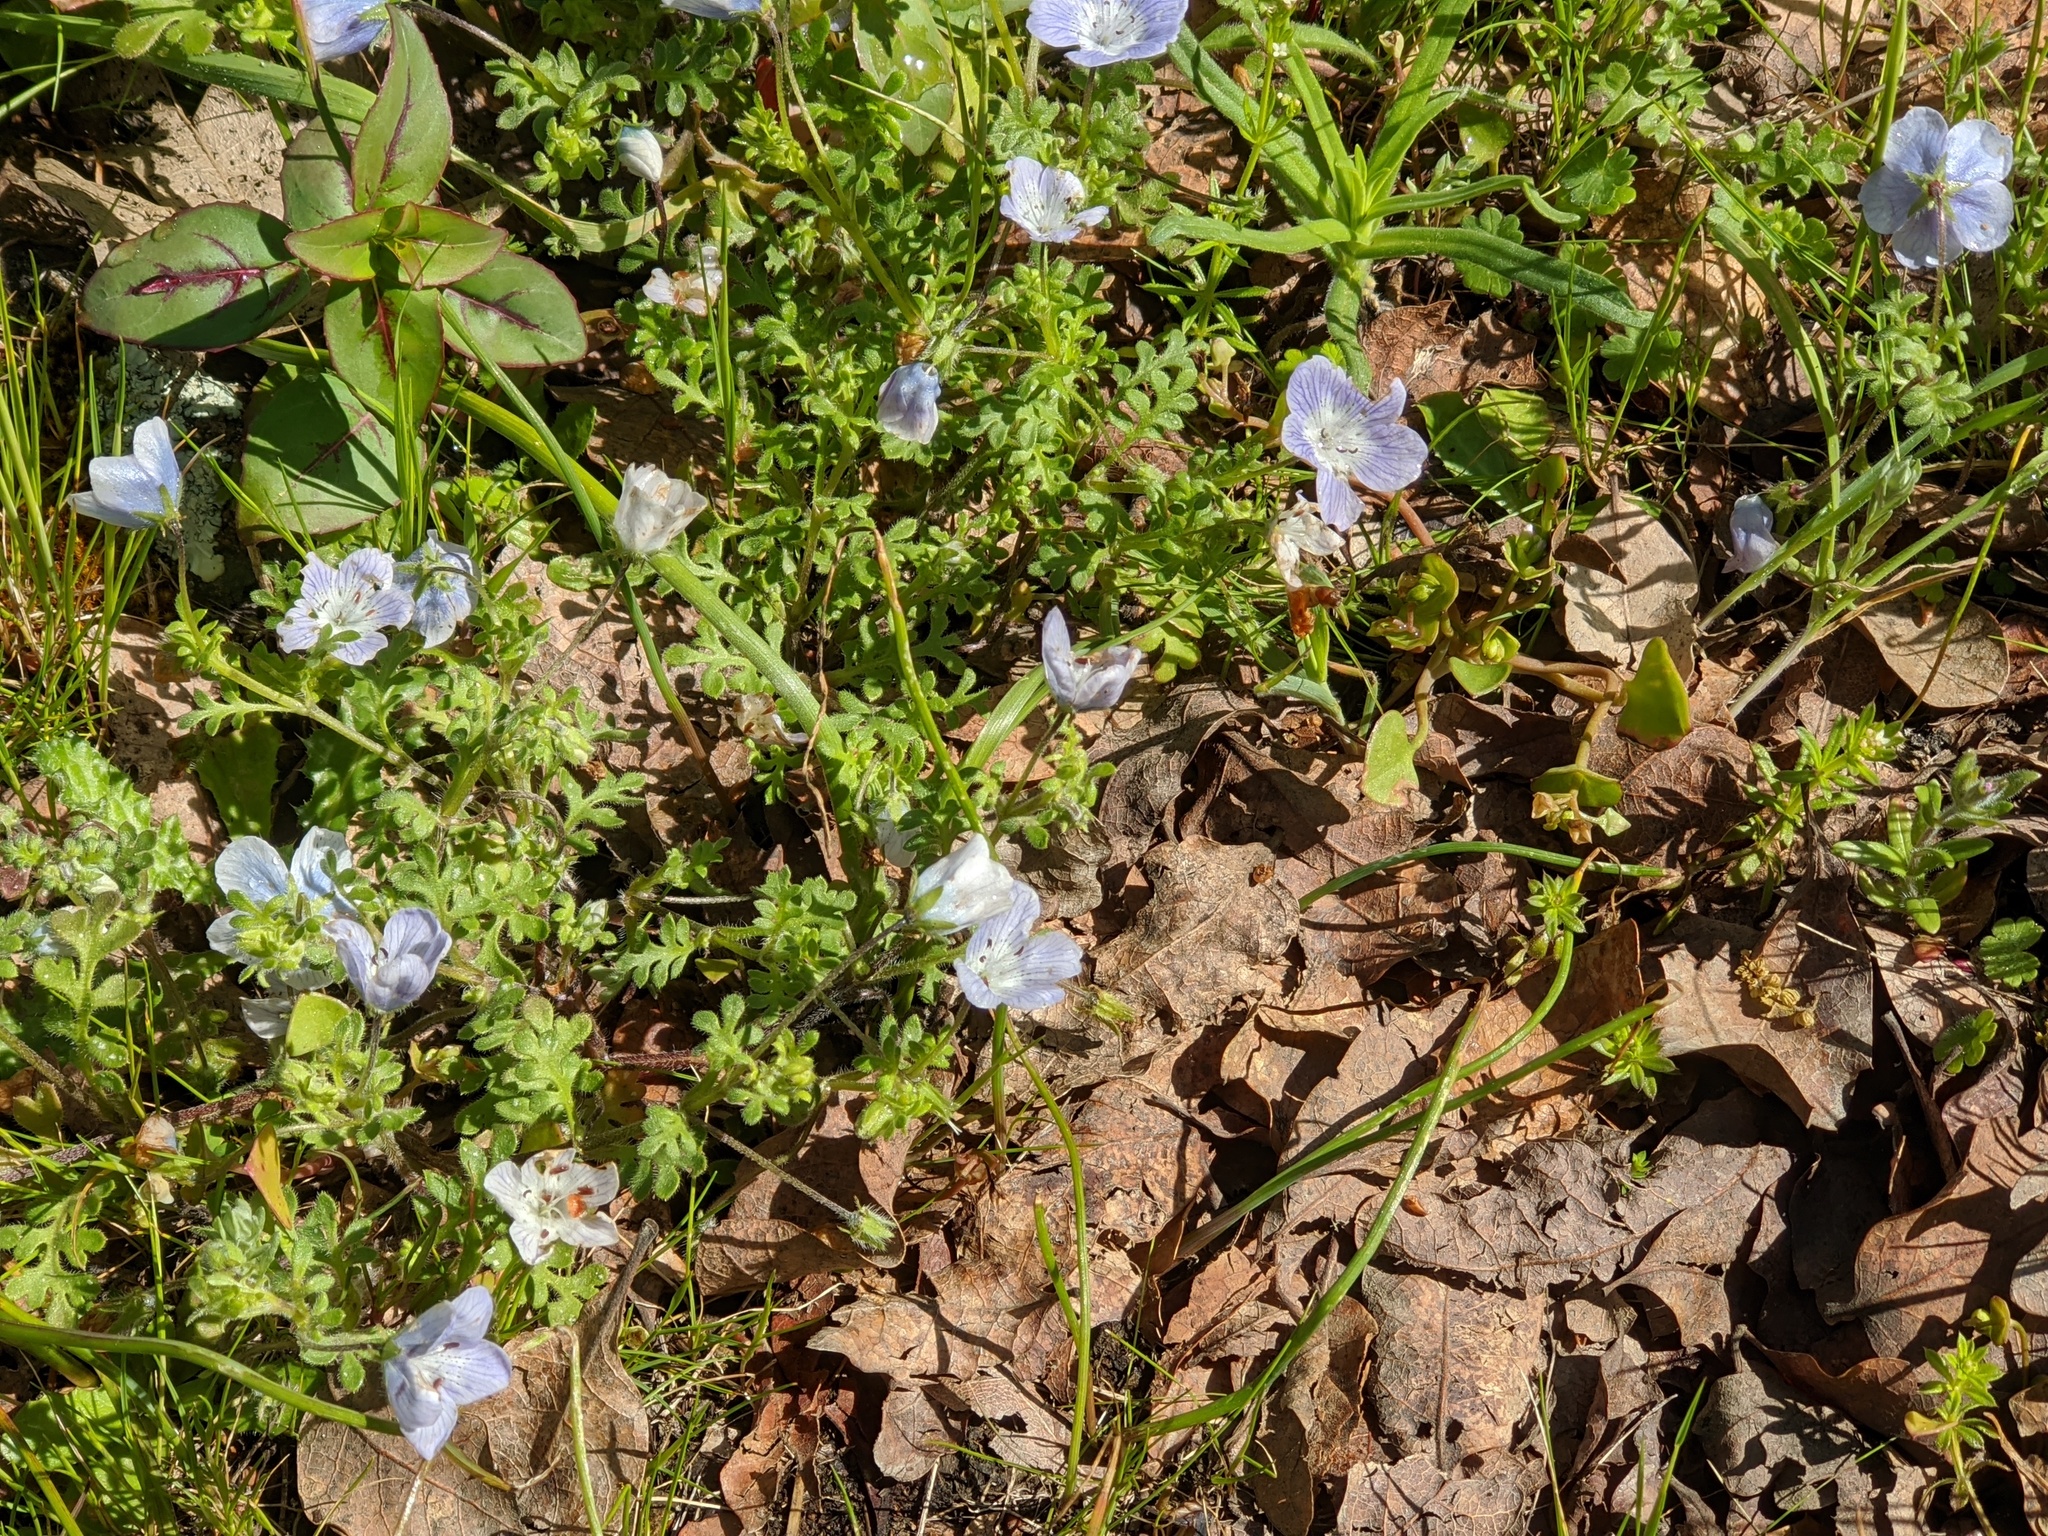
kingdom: Plantae
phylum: Tracheophyta
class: Magnoliopsida
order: Boraginales
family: Hydrophyllaceae
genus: Nemophila
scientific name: Nemophila menziesii
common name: Baby's-blue-eyes
